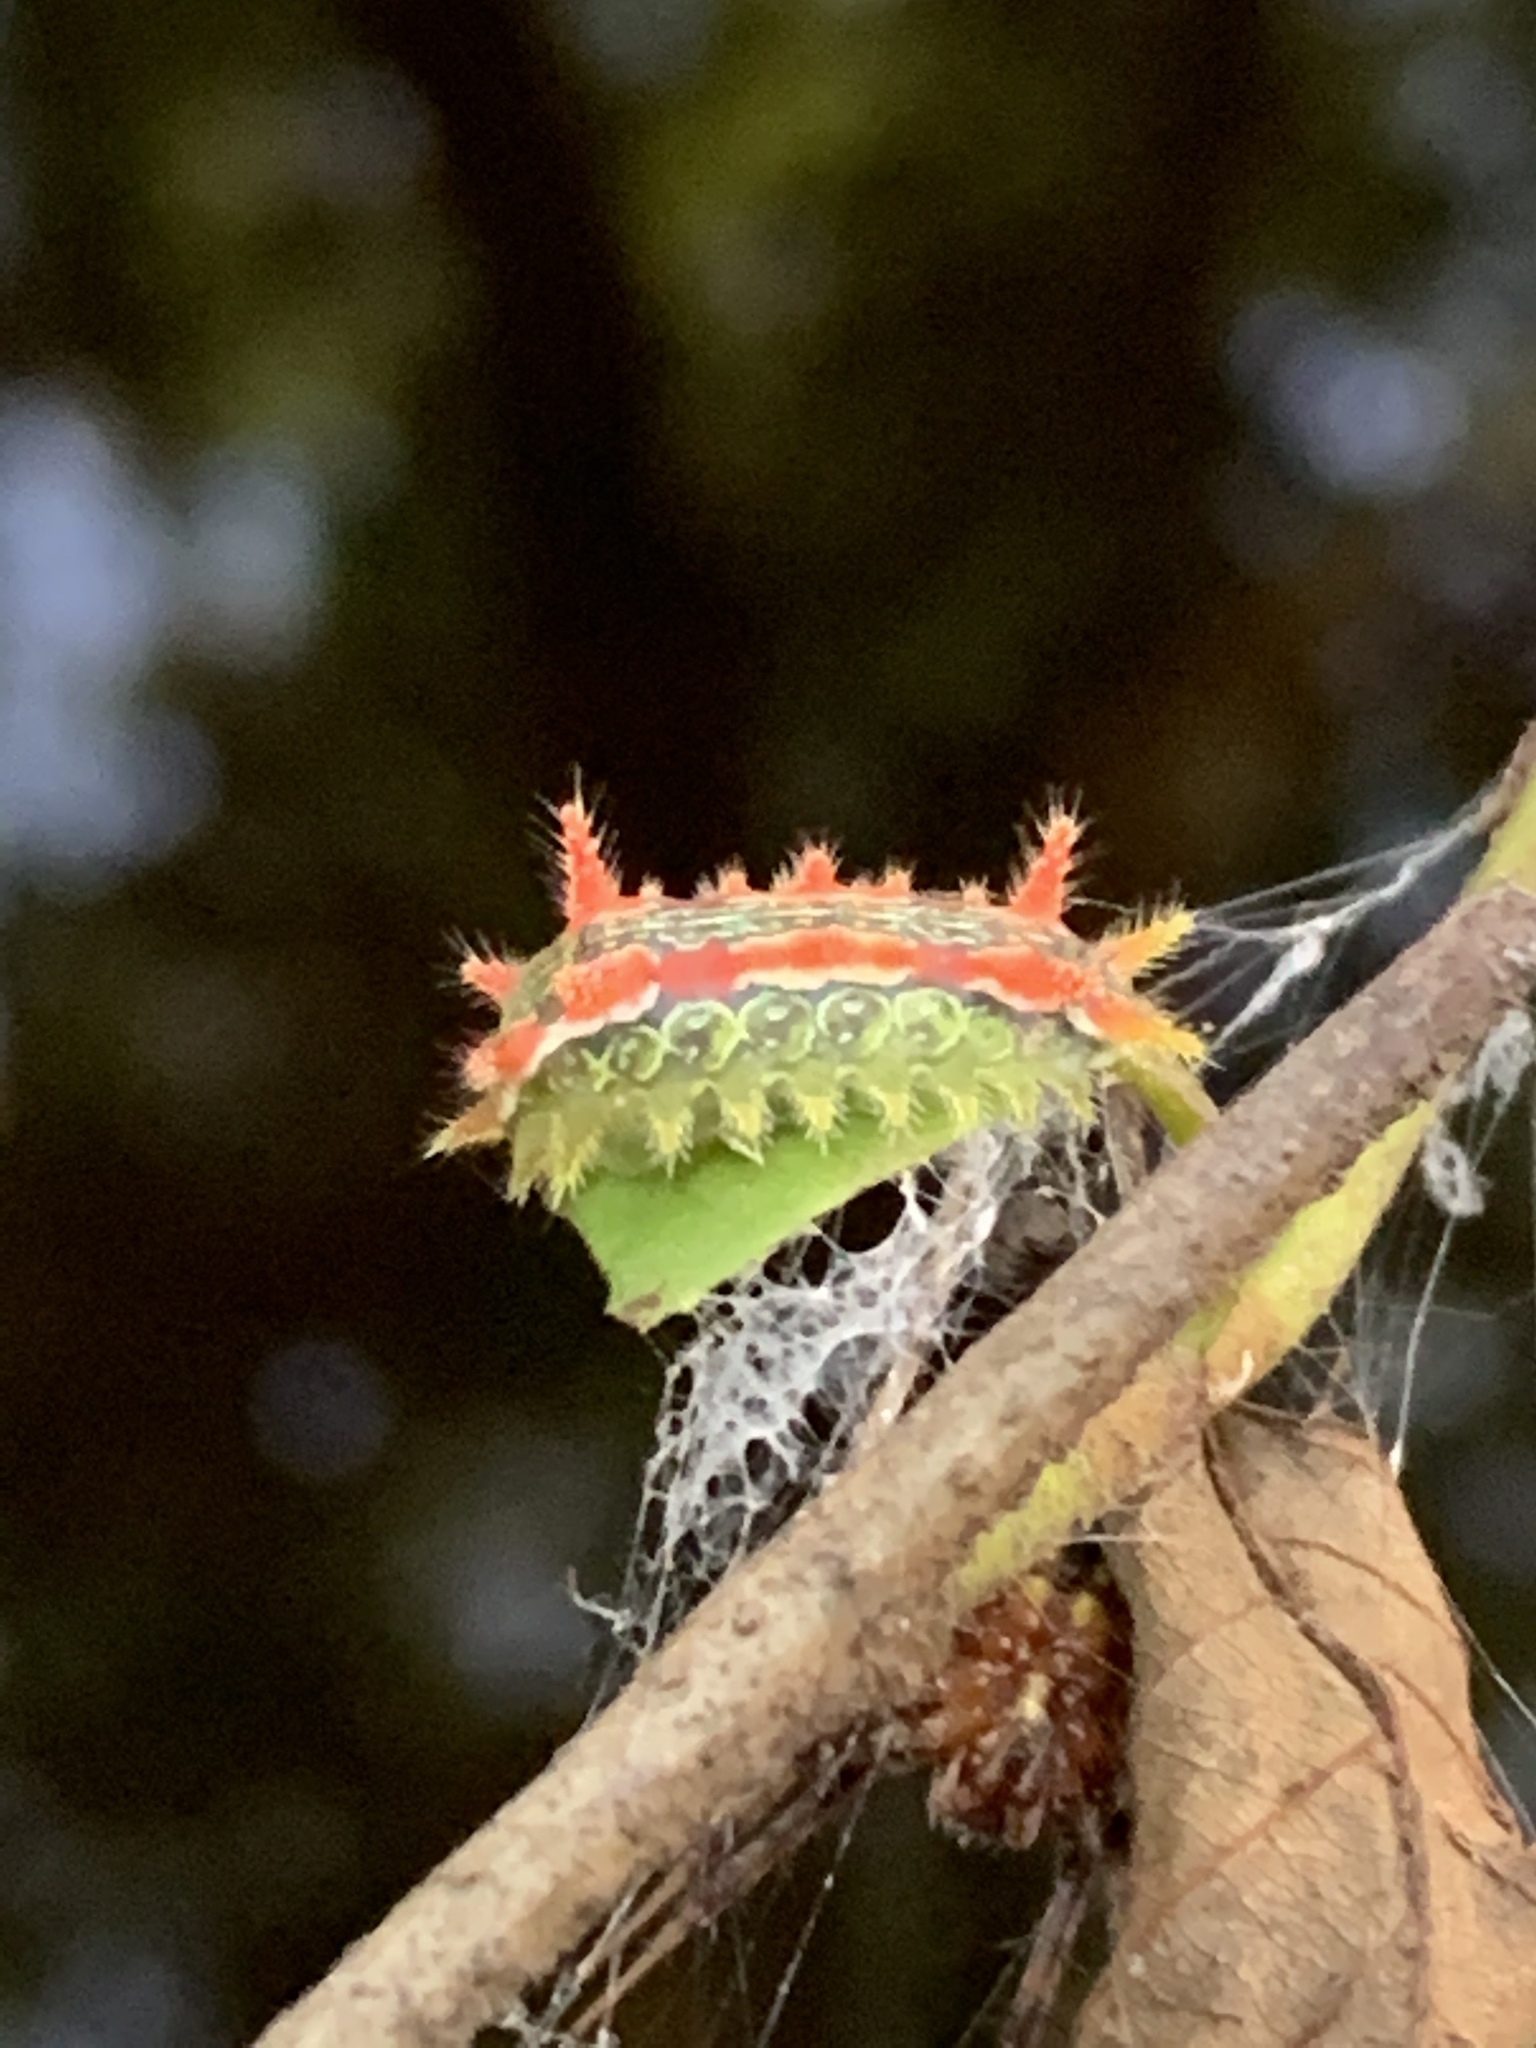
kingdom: Animalia
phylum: Arthropoda
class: Insecta
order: Lepidoptera
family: Limacodidae
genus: Euclea
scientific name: Euclea delphinii
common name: Spiny oak-slug moth
